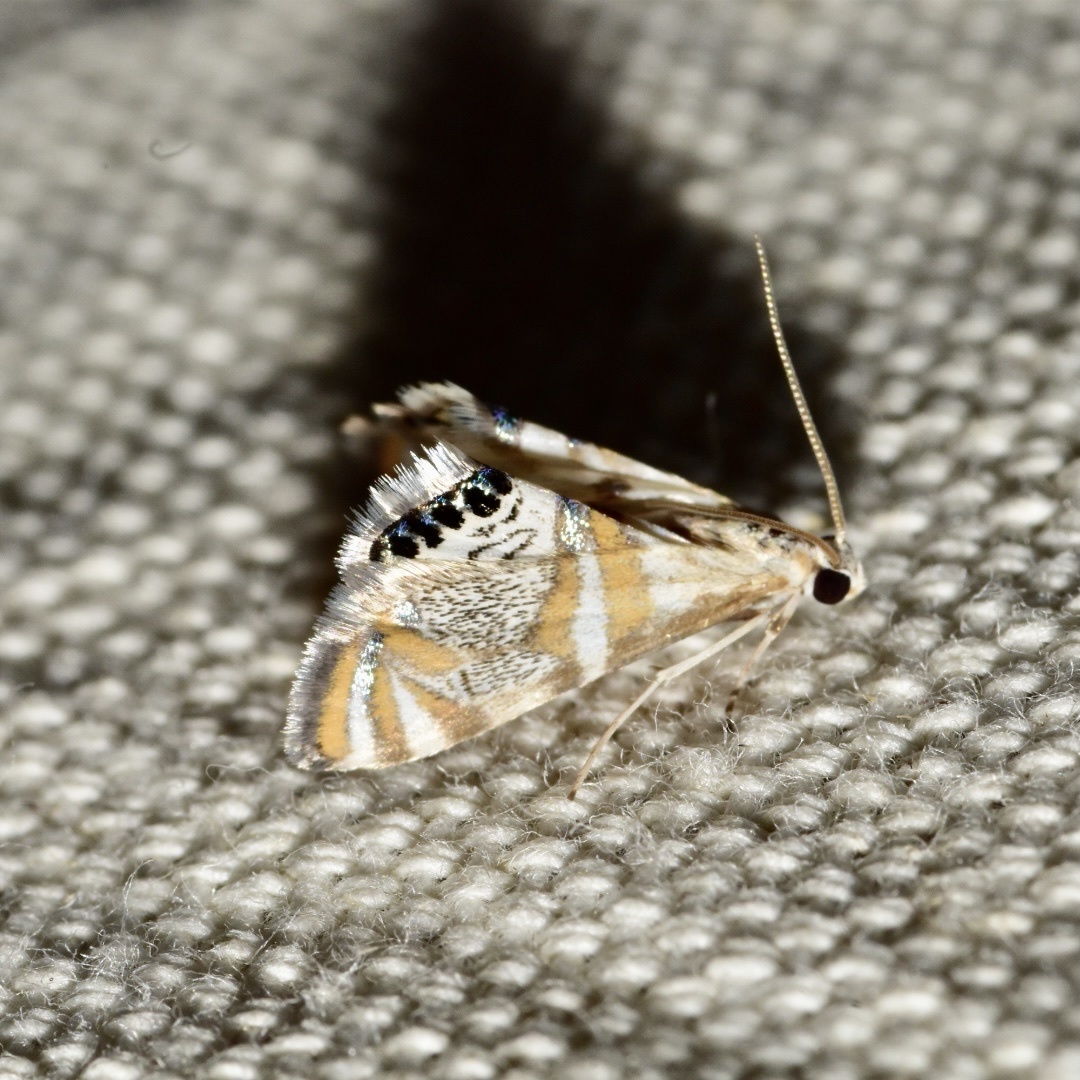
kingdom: Animalia
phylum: Arthropoda
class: Insecta
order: Lepidoptera
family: Crambidae
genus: Petrophila
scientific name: Petrophila kearfottalis
